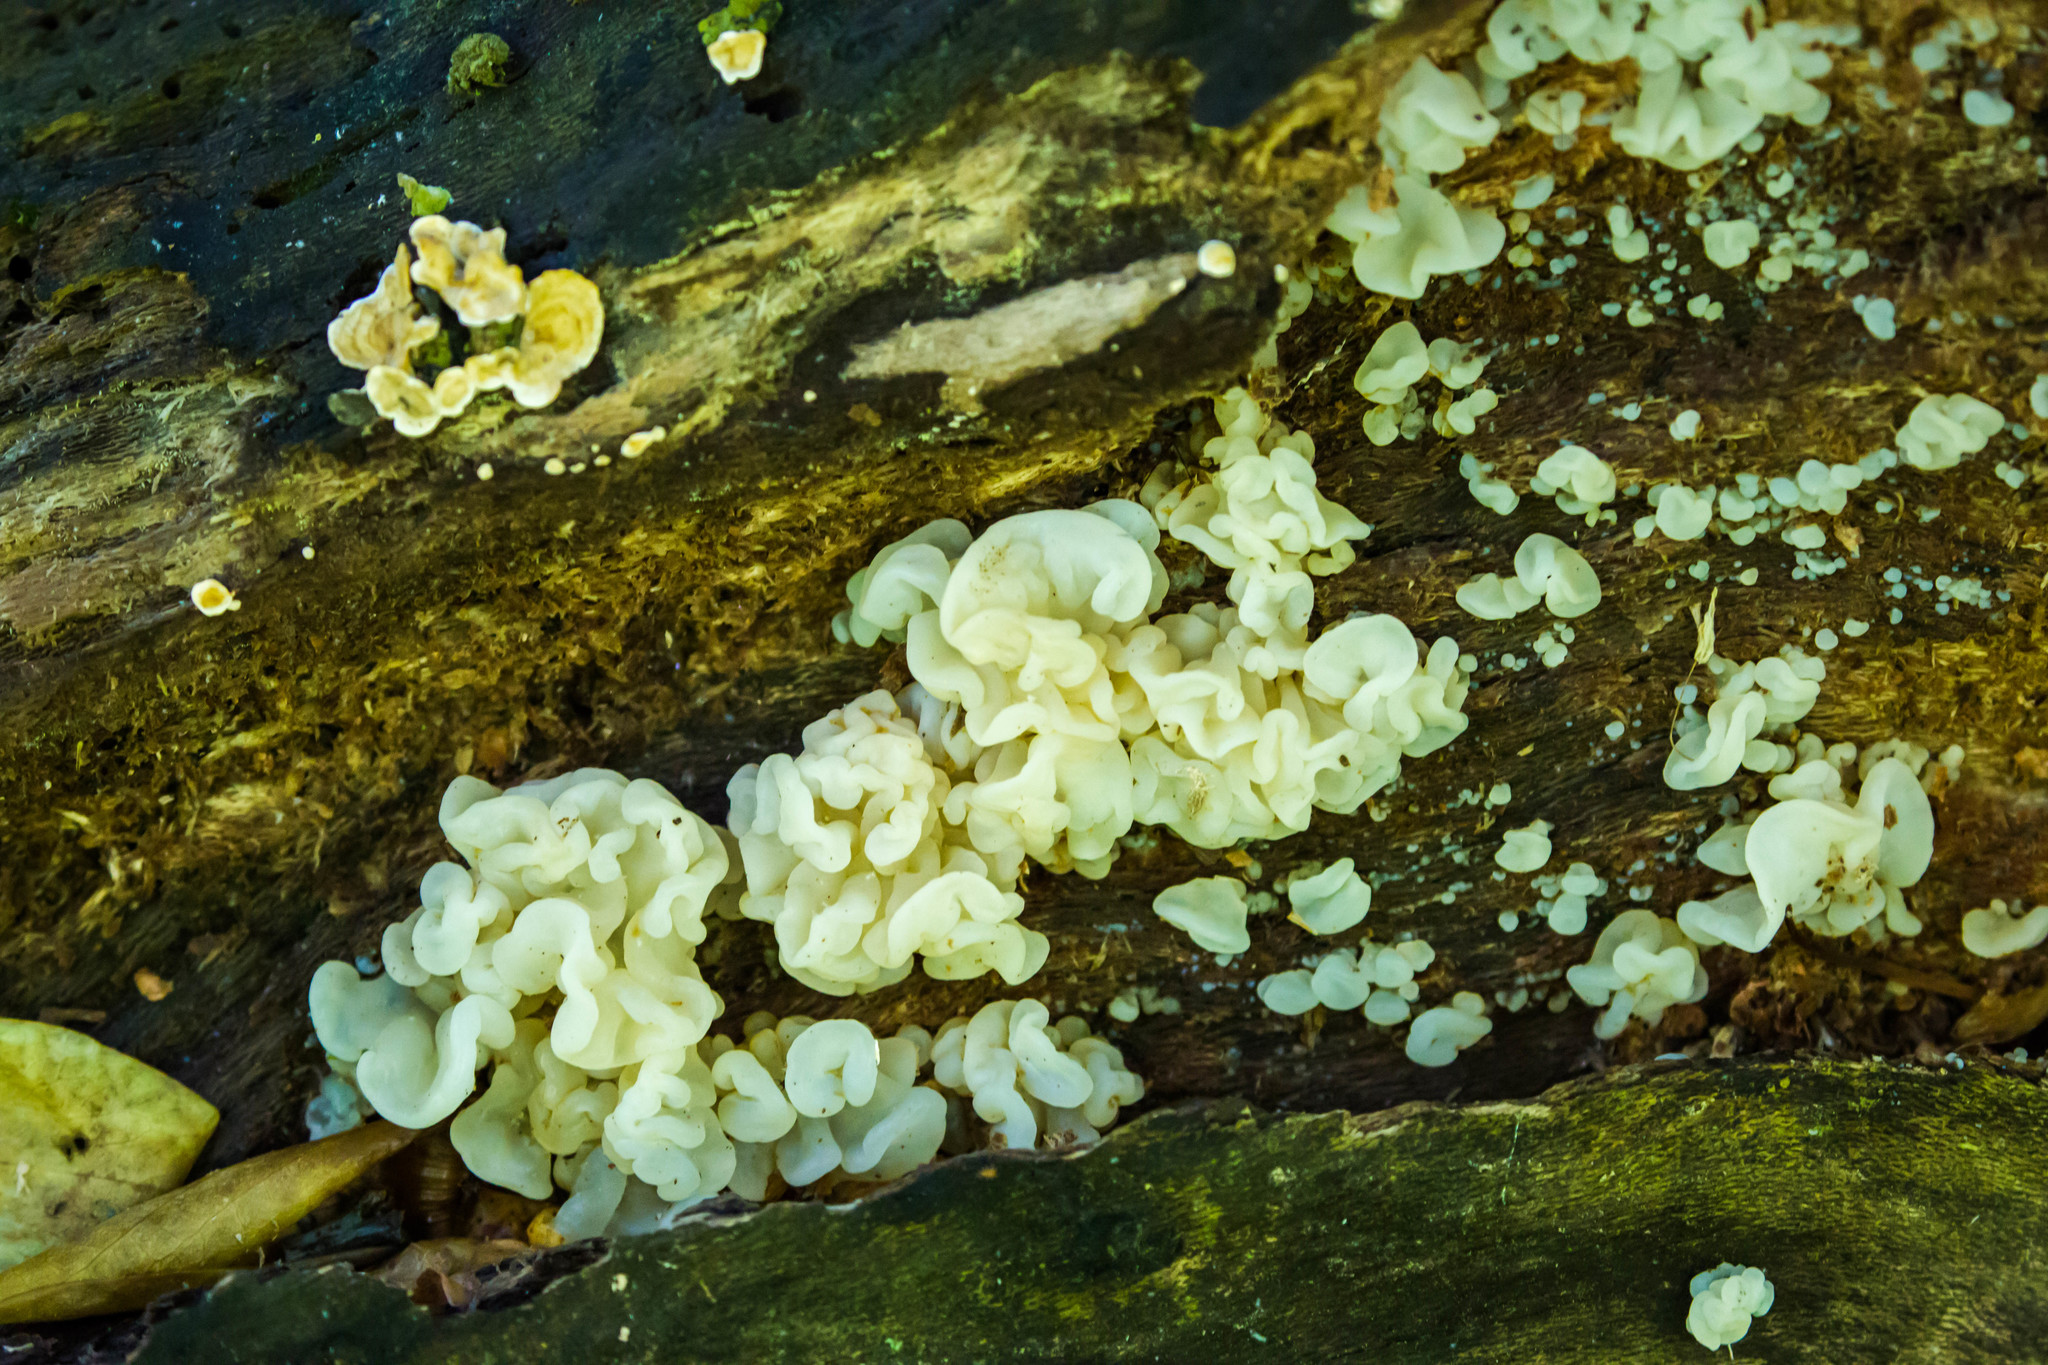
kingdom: Fungi
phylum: Basidiomycota
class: Agaricomycetes
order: Auriculariales
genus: Ductifera
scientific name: Ductifera pululahuana
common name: White jelly fungus
